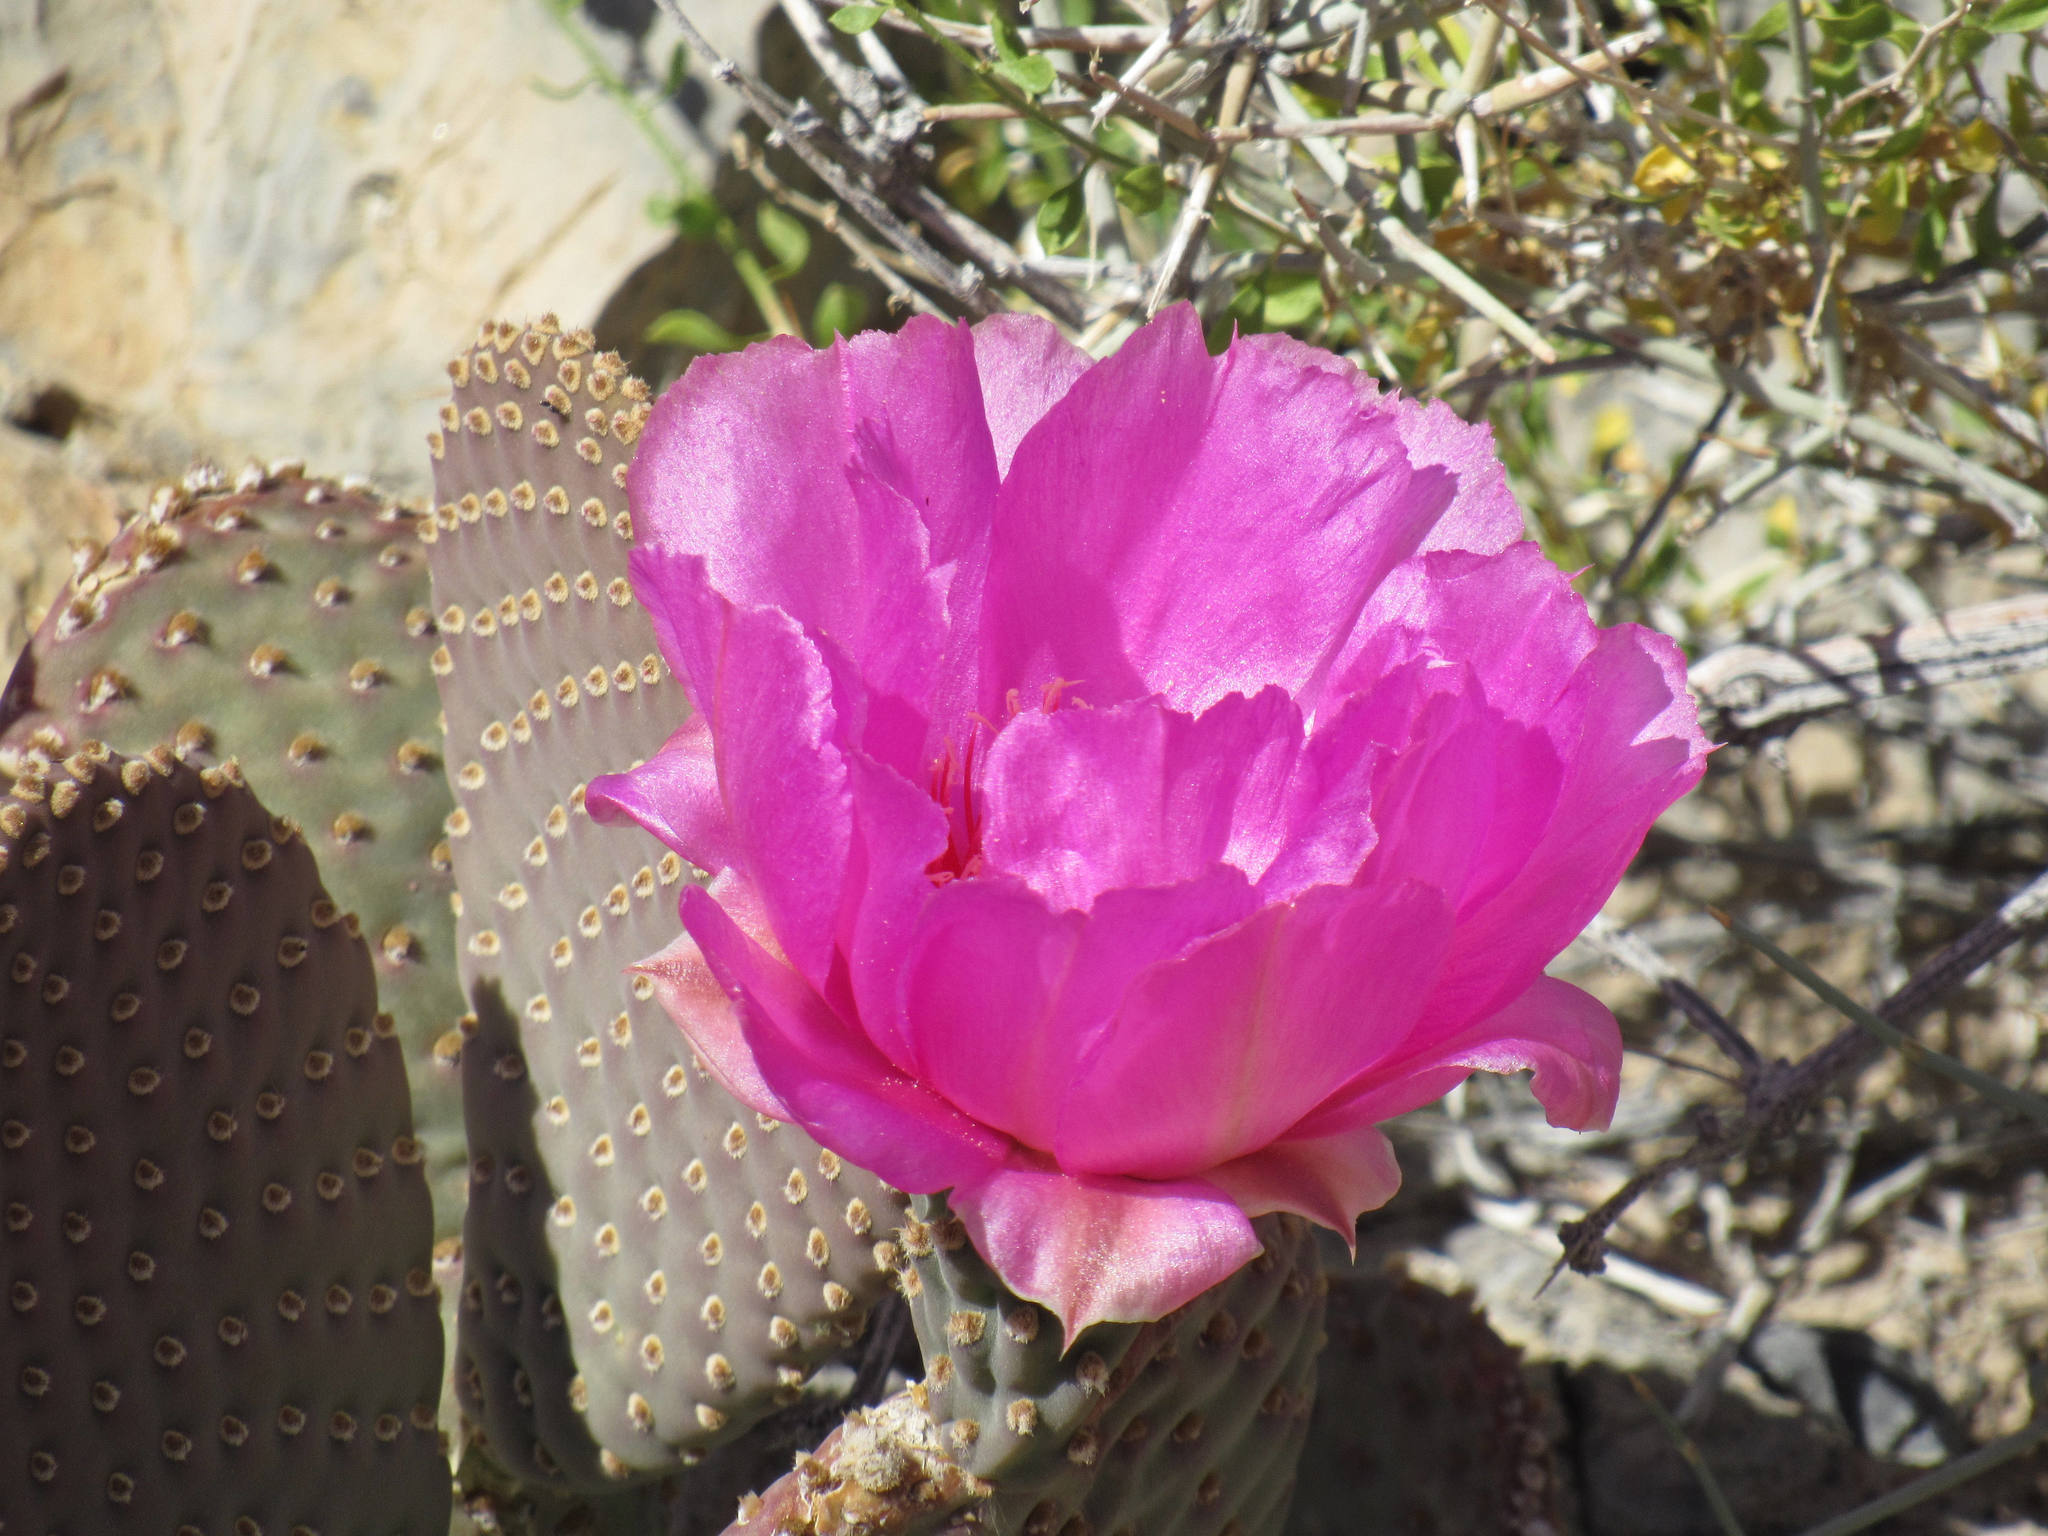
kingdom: Plantae
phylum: Tracheophyta
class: Magnoliopsida
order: Caryophyllales
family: Cactaceae
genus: Opuntia
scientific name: Opuntia basilaris
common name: Beavertail prickly-pear
